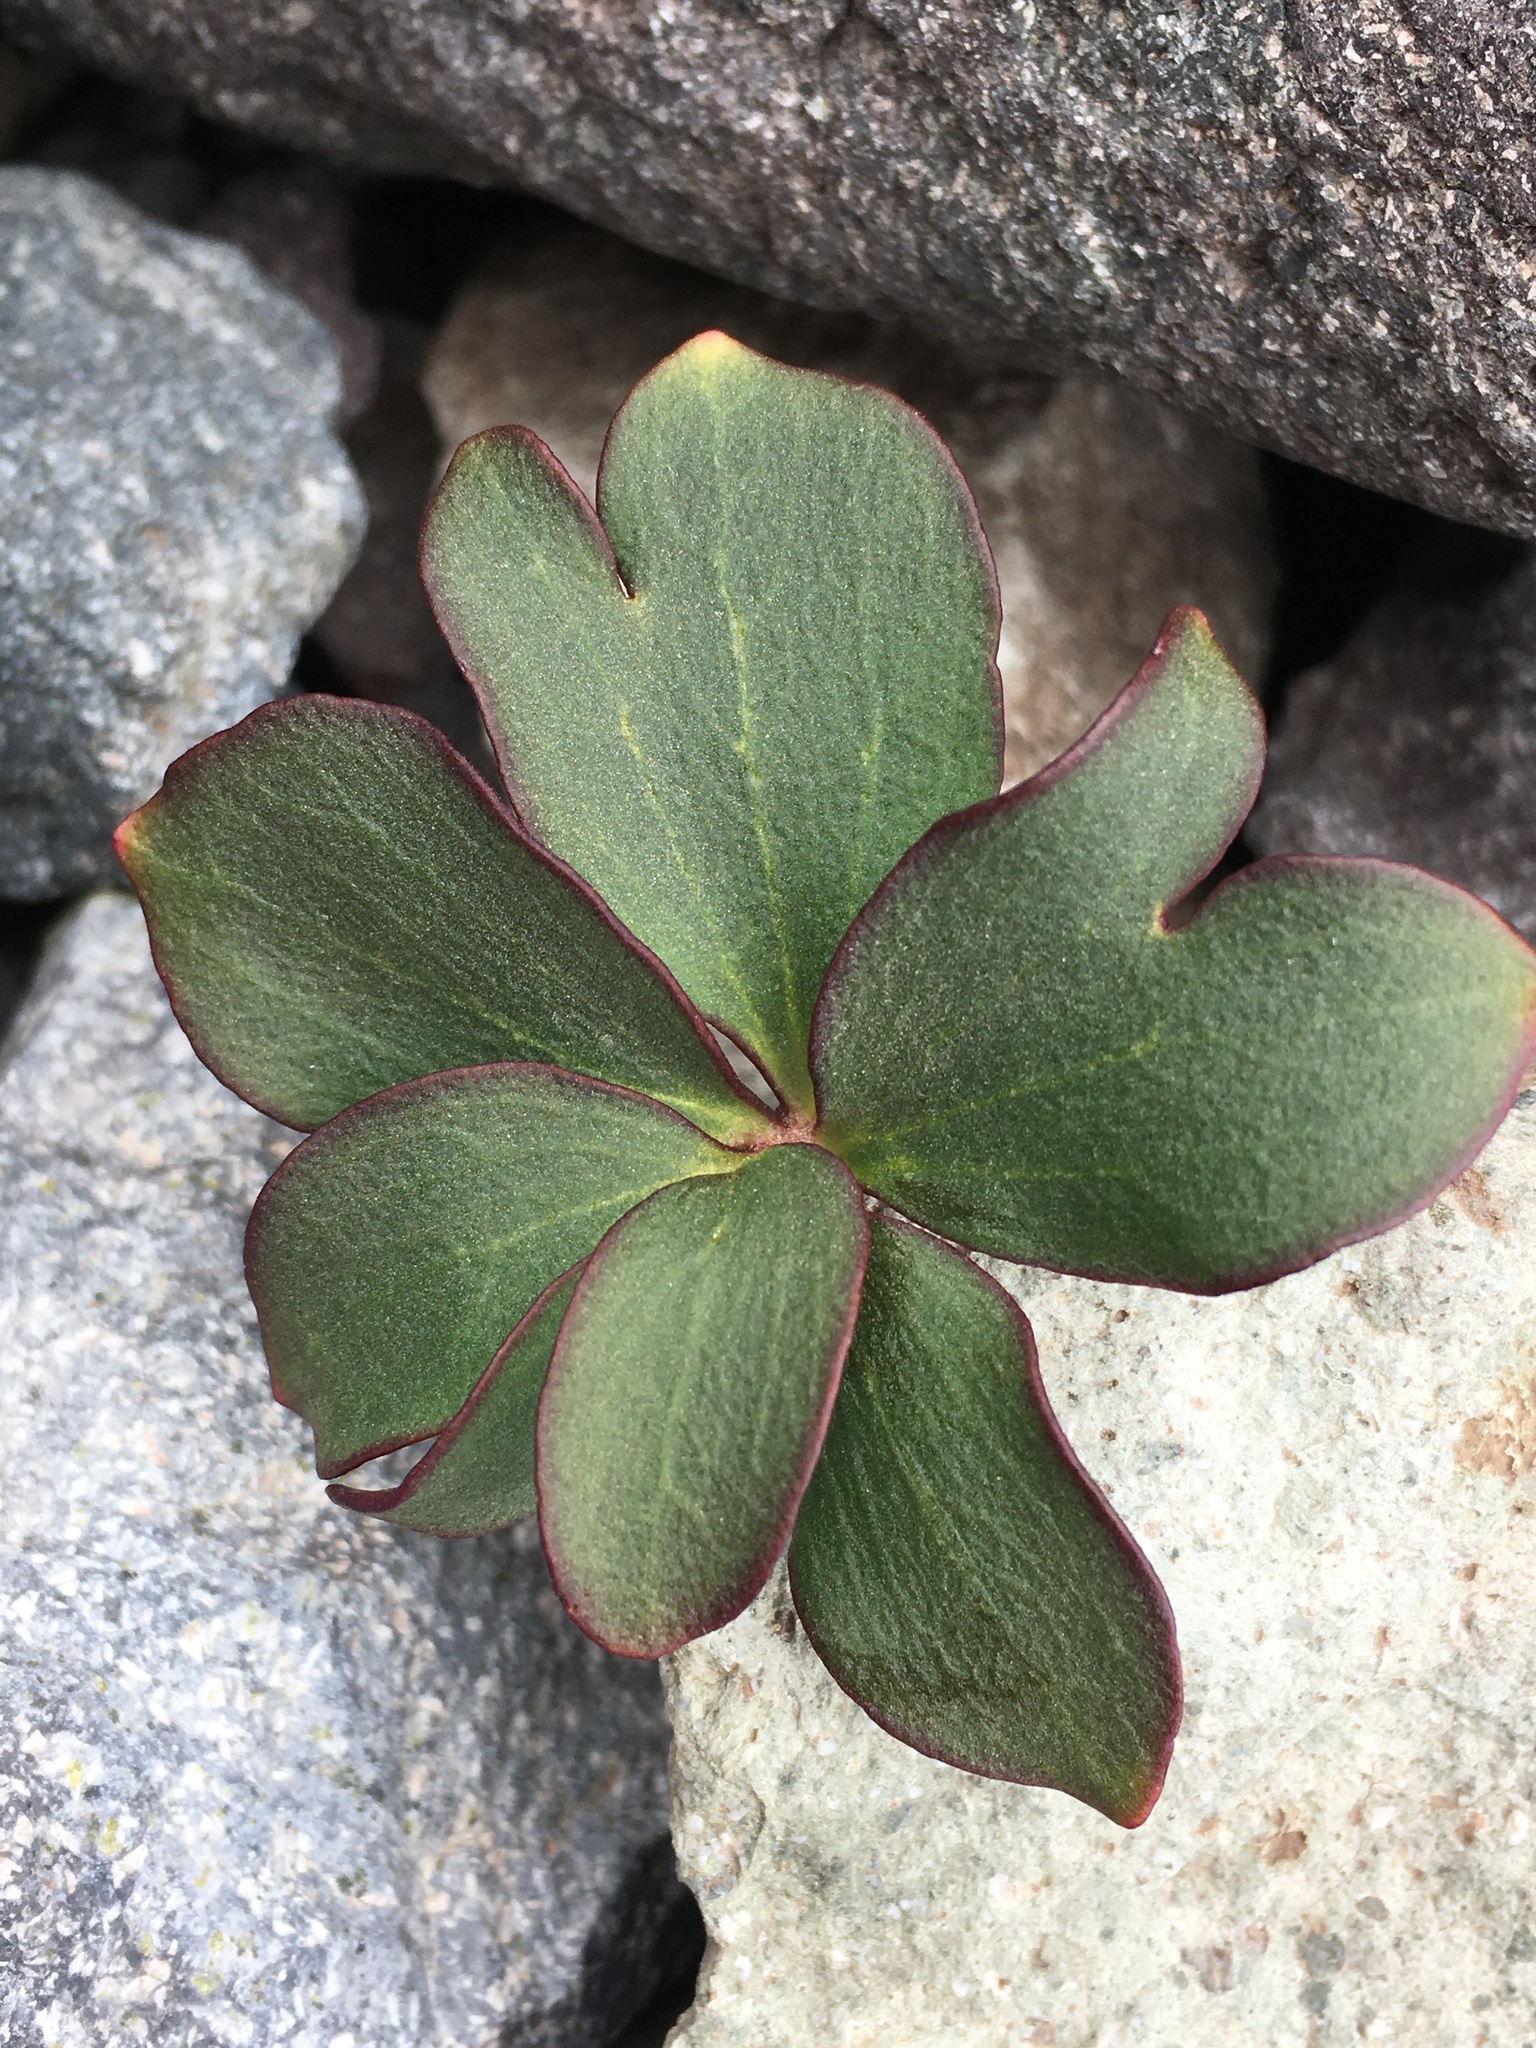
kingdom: Plantae
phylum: Tracheophyta
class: Magnoliopsida
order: Ranunculales
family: Ranunculaceae
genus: Knowltonia
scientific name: Knowltonia chilensis
